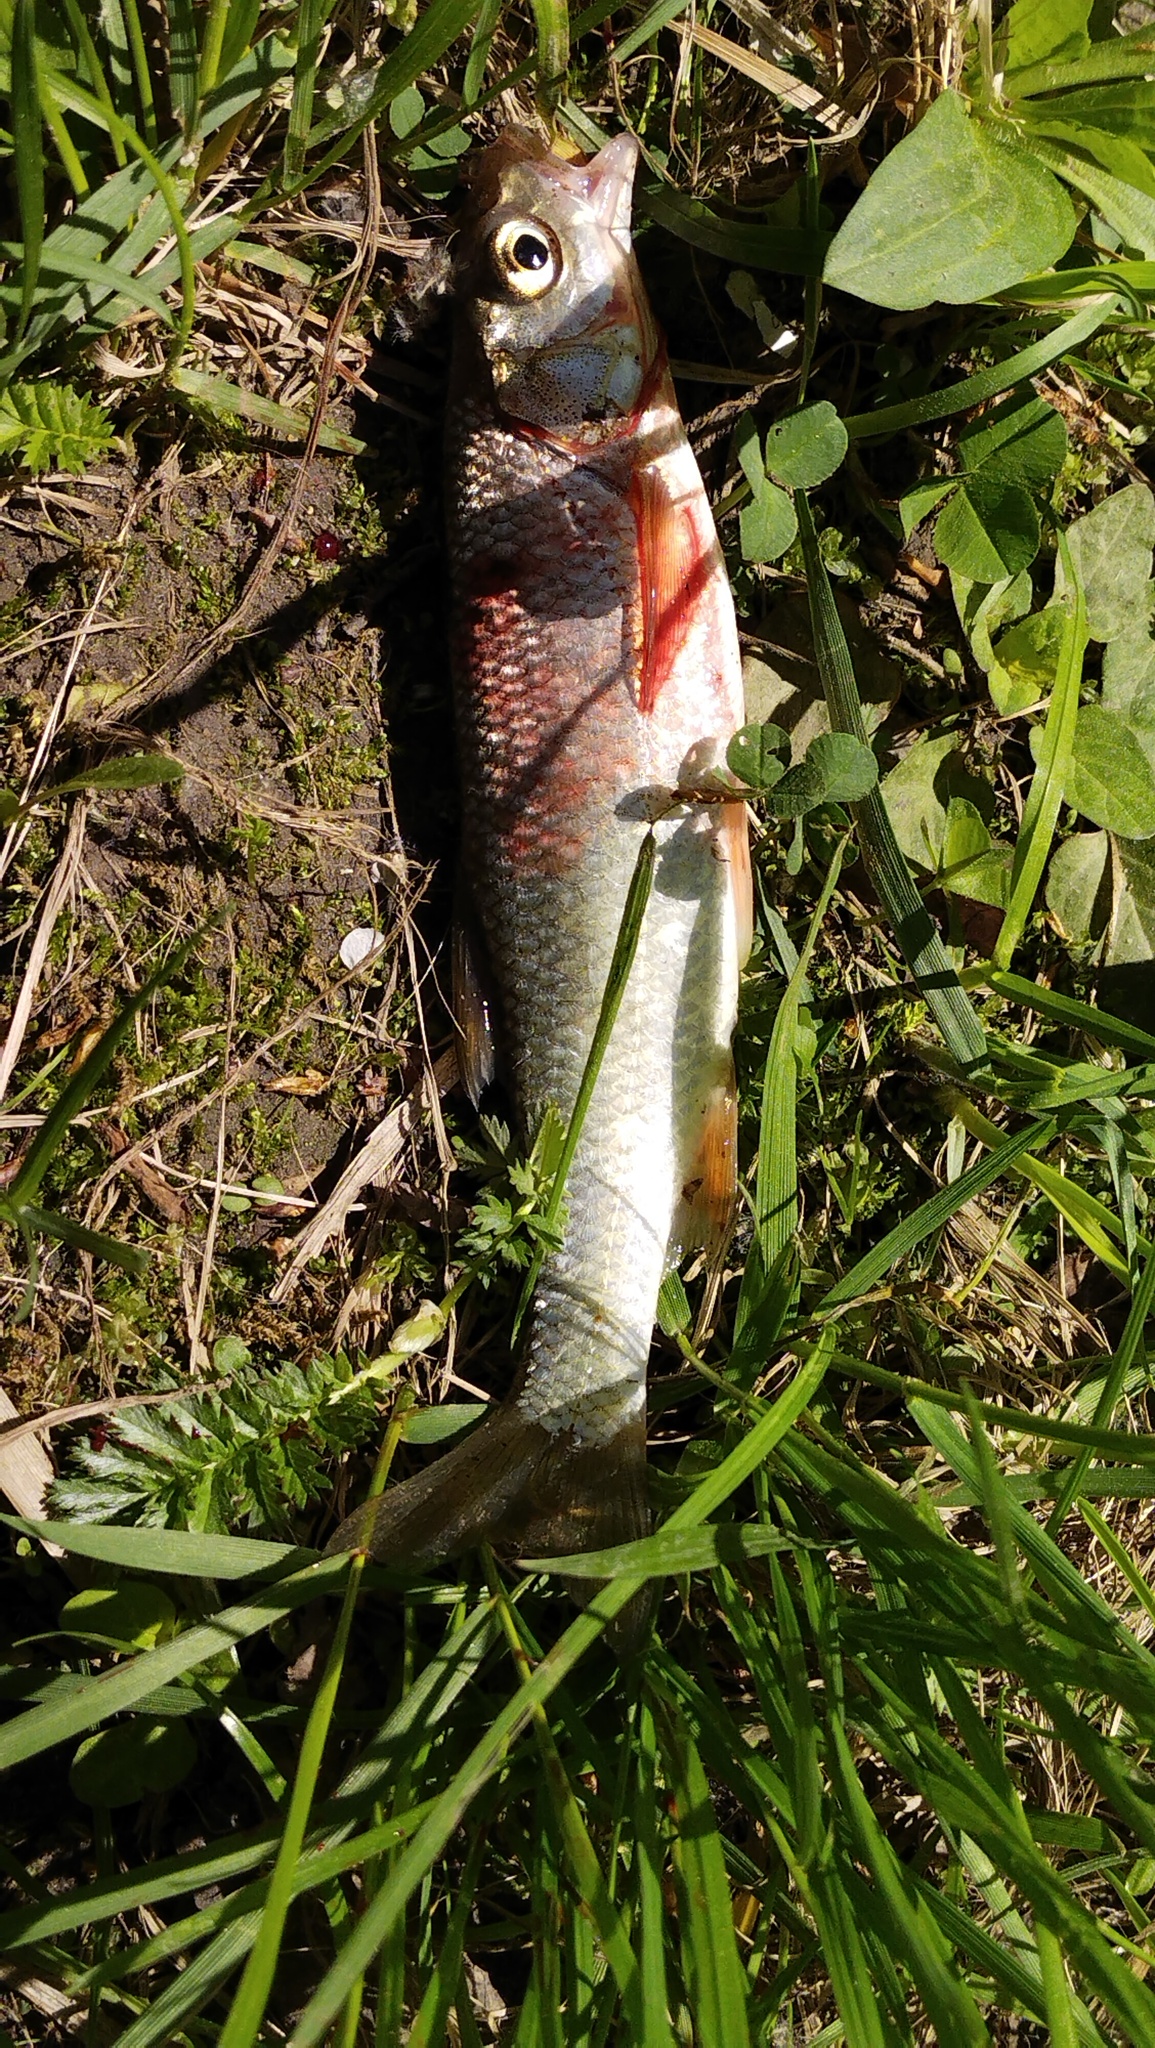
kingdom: Animalia
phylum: Chordata
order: Cypriniformes
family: Cyprinidae
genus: Leuciscus
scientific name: Leuciscus baicalensis
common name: Siberian dace
